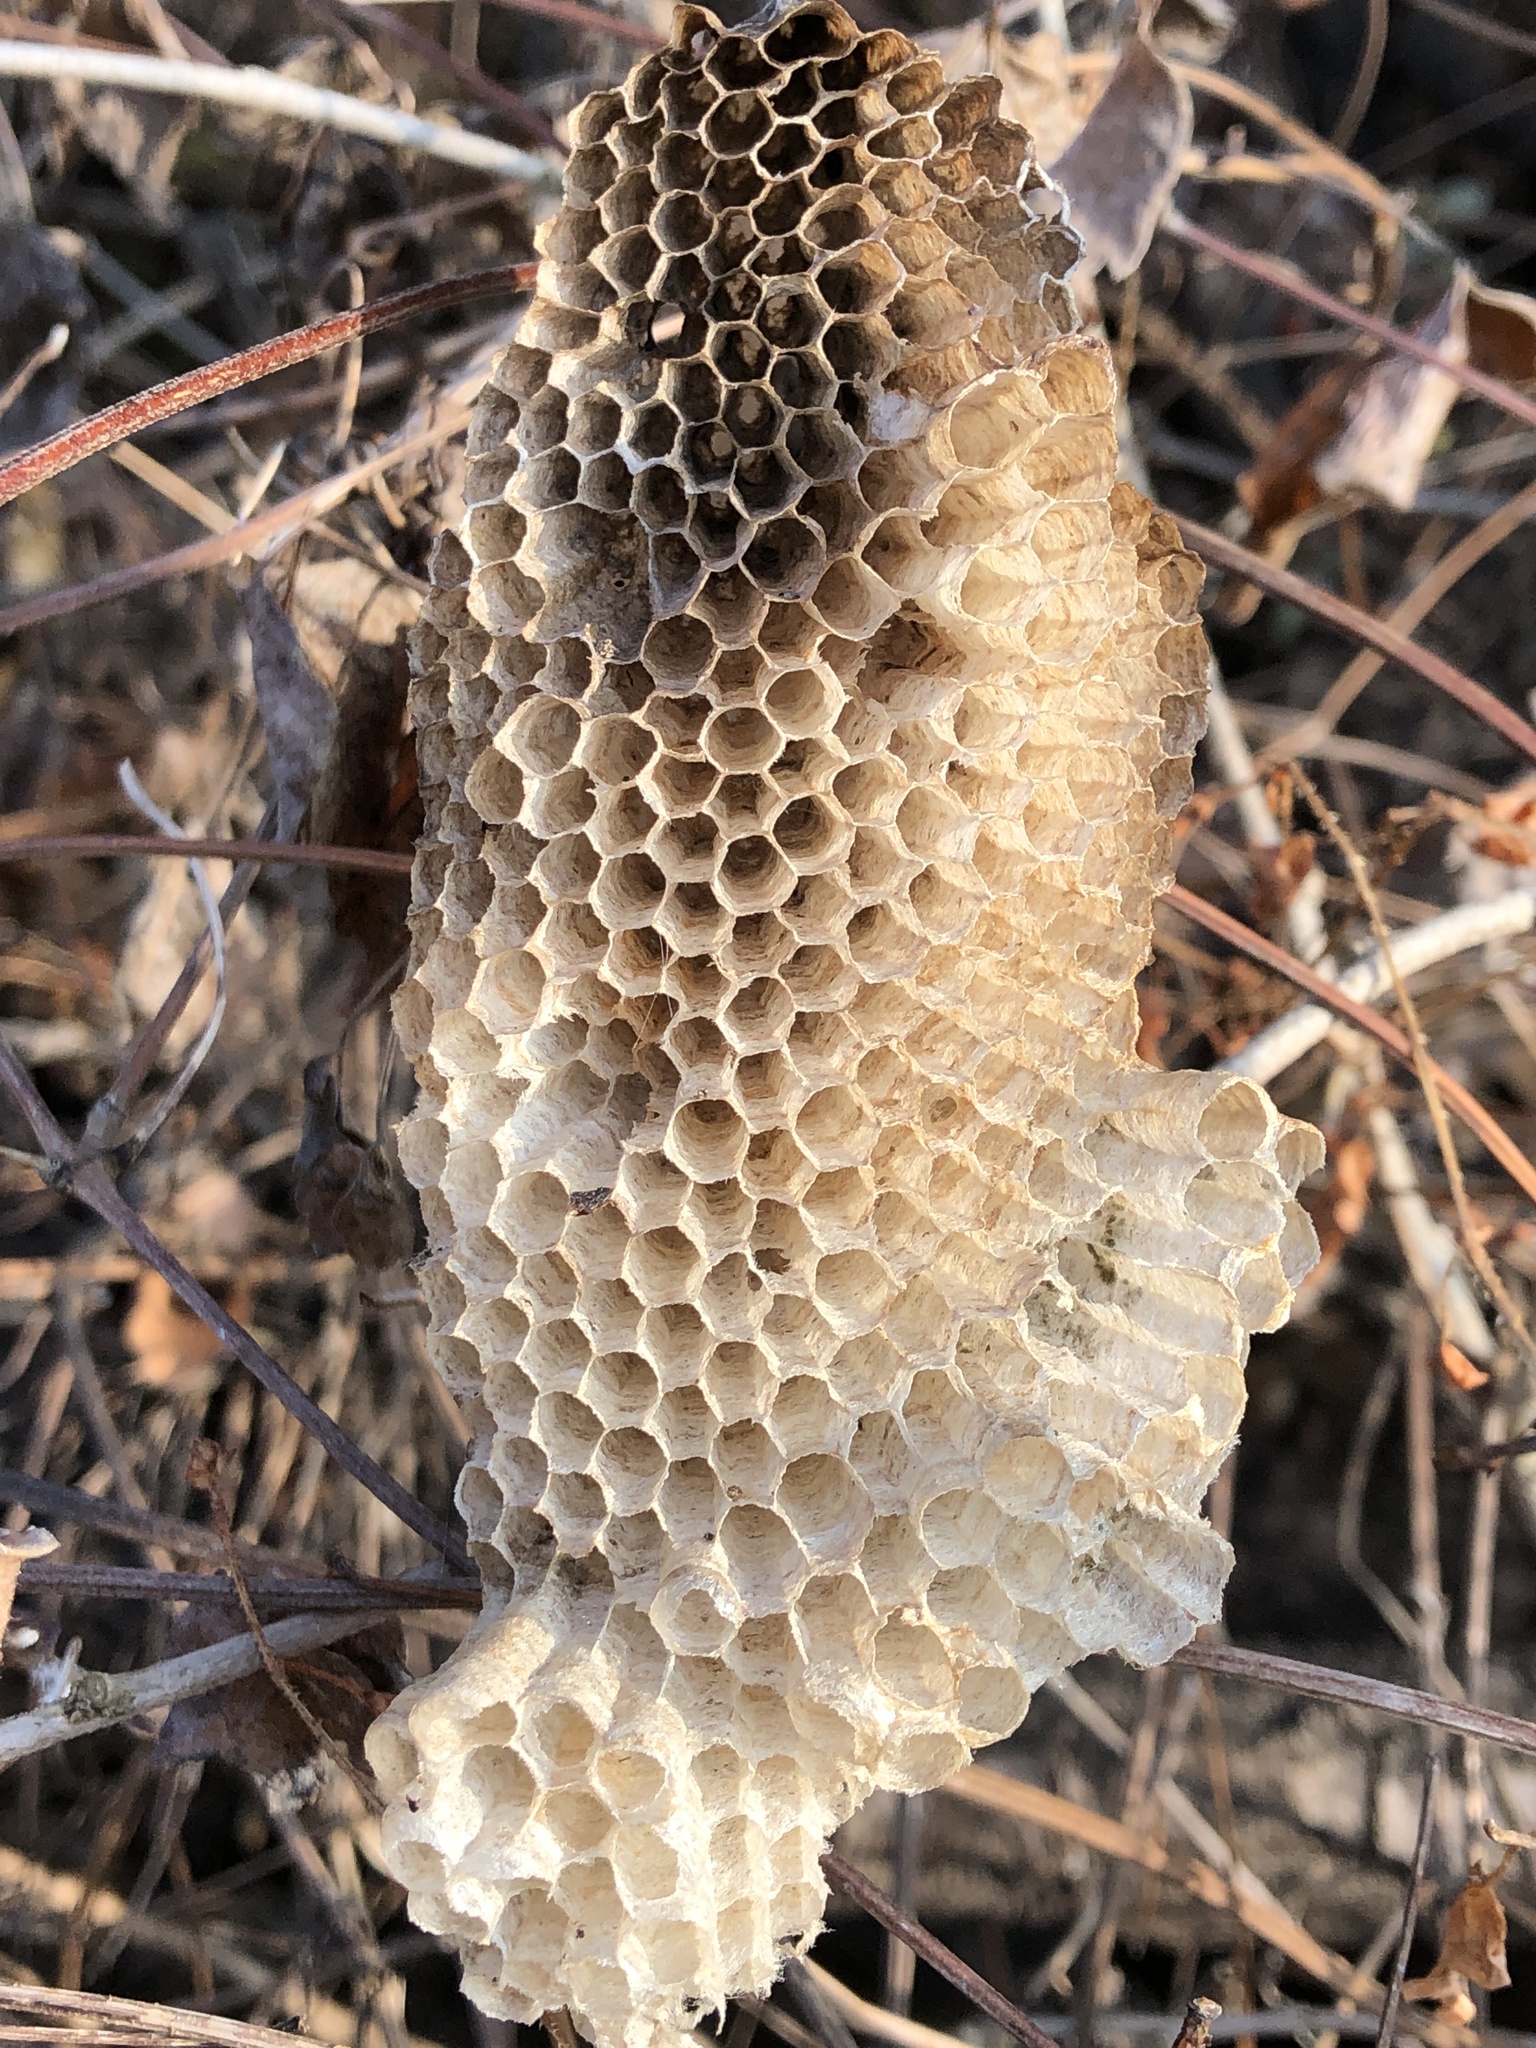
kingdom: Animalia
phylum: Arthropoda
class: Insecta
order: Hymenoptera
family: Vespidae
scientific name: Vespidae
